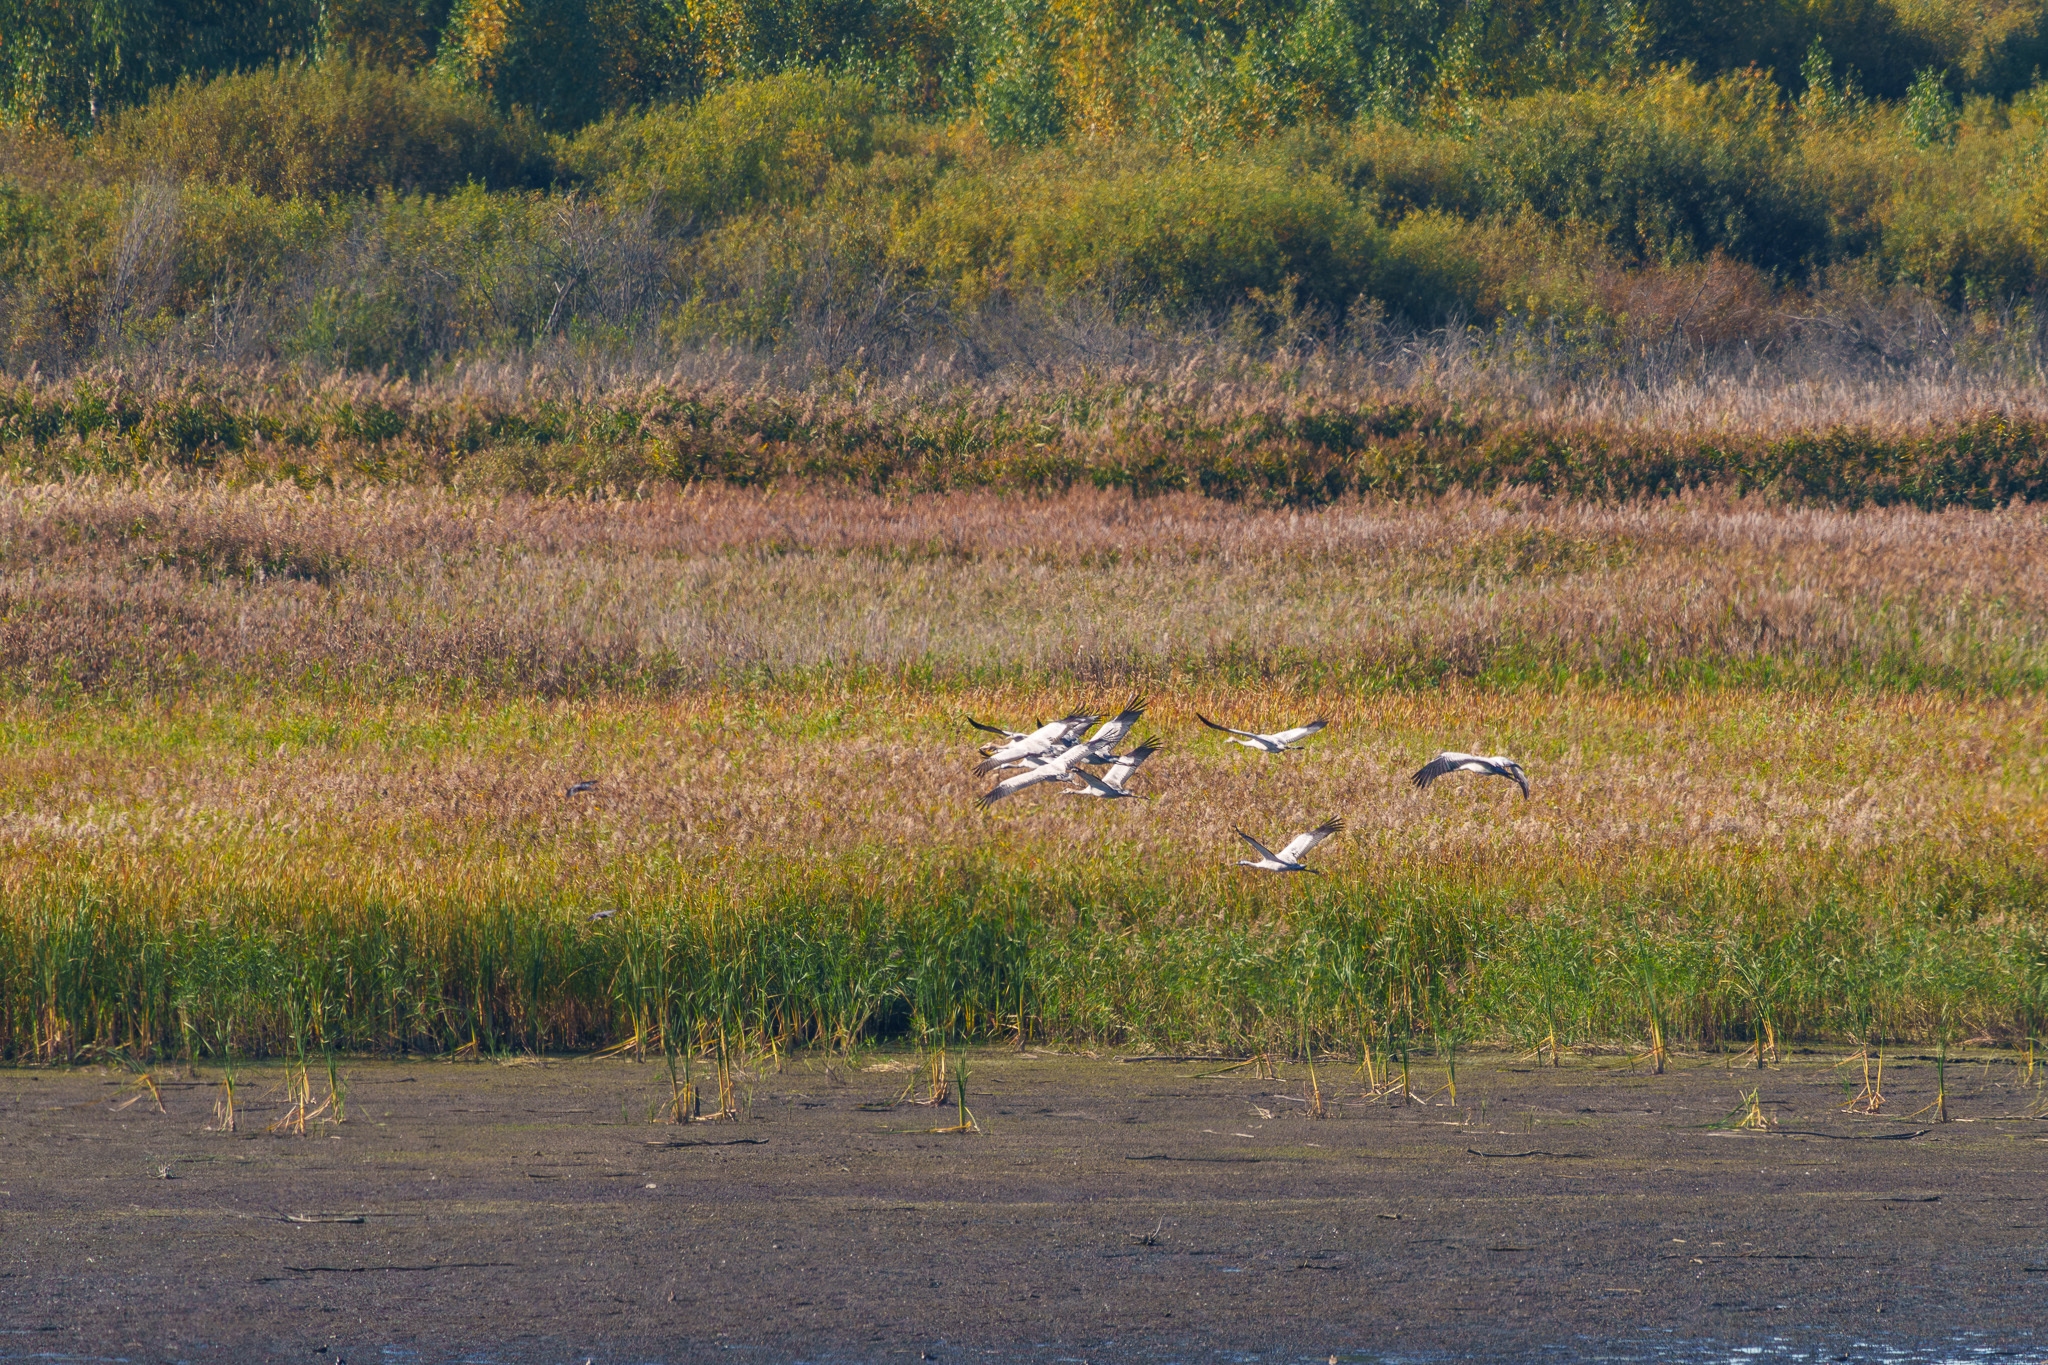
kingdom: Animalia
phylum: Chordata
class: Aves
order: Gruiformes
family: Gruidae
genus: Grus
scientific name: Grus grus
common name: Common crane
